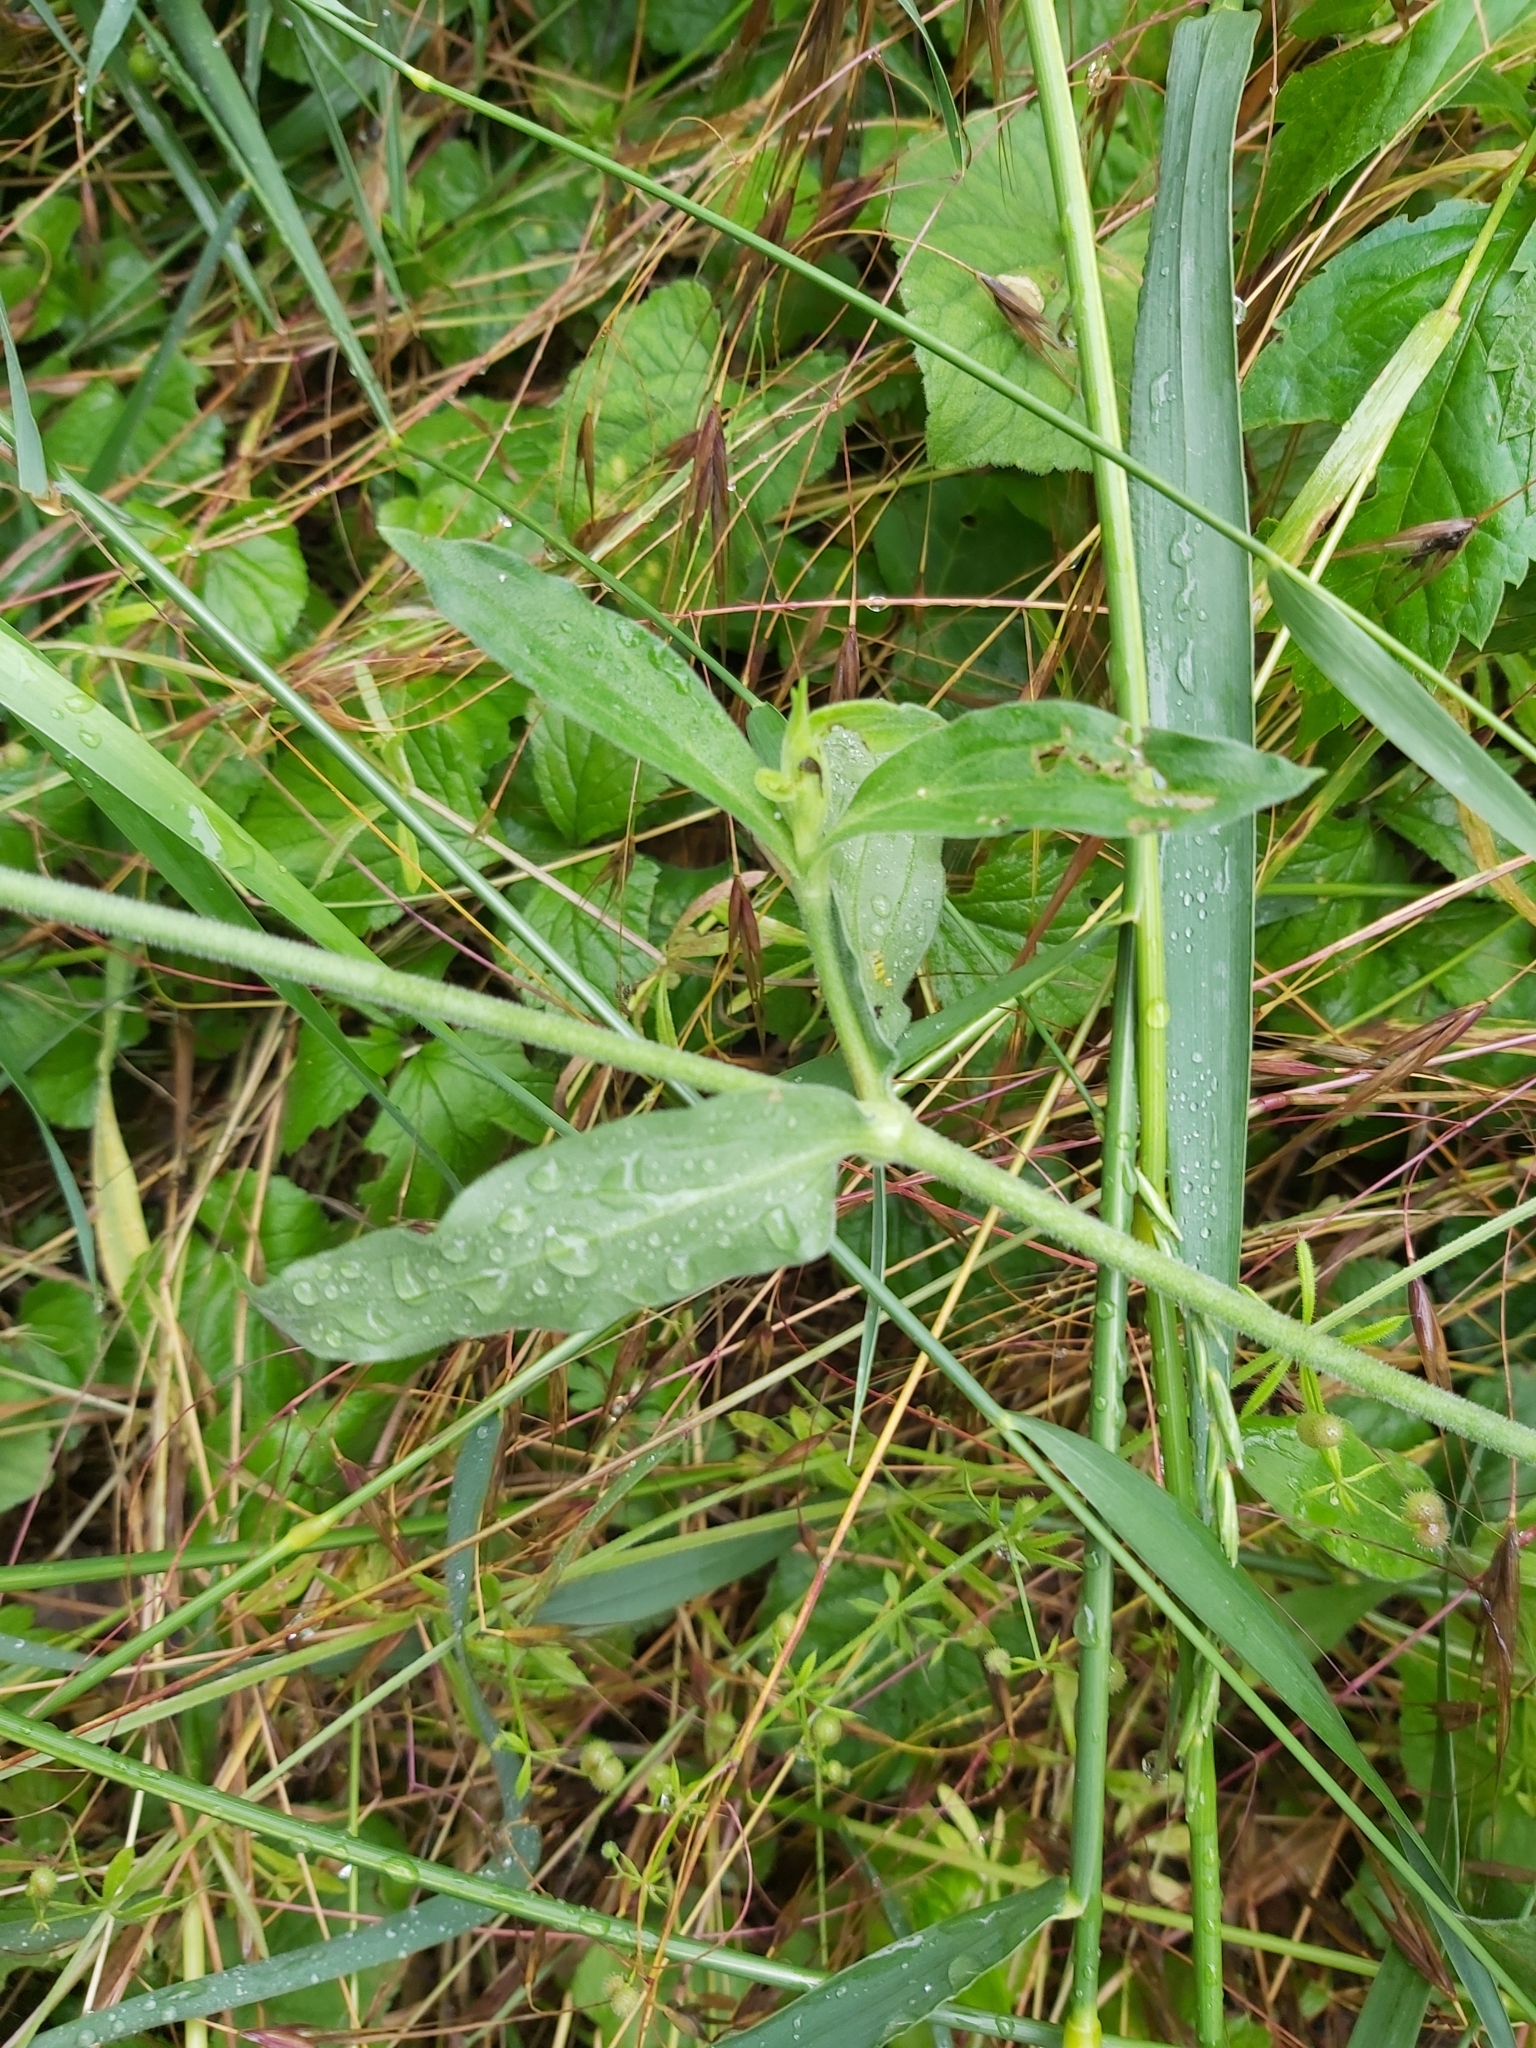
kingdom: Plantae
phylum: Tracheophyta
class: Magnoliopsida
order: Caryophyllales
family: Caryophyllaceae
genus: Silene
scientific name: Silene latifolia
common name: White campion
